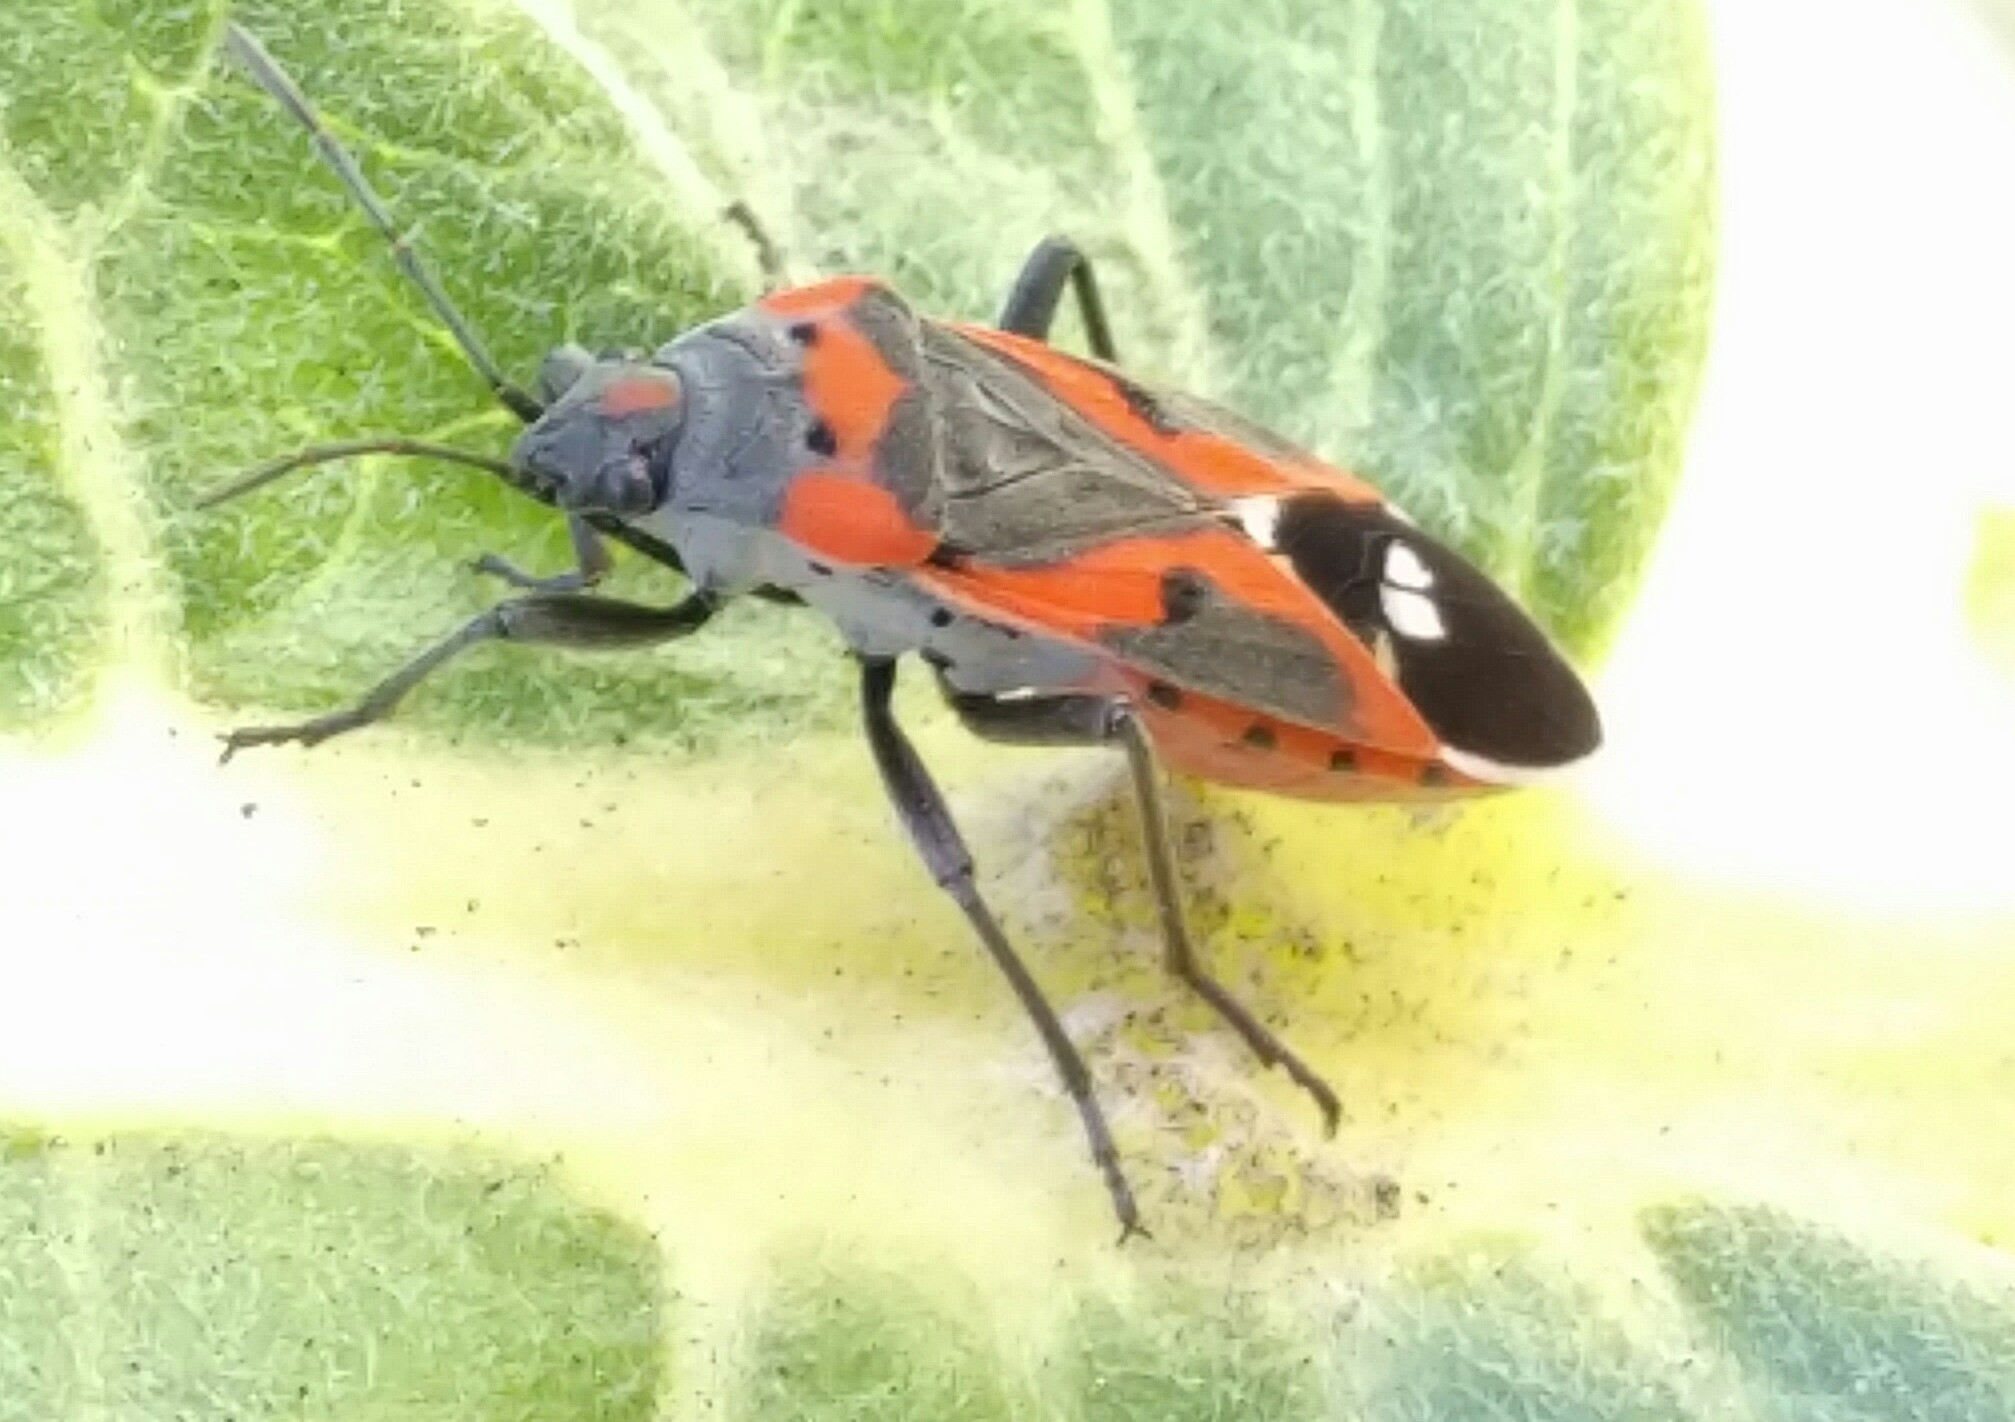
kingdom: Animalia
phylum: Arthropoda
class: Insecta
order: Hemiptera
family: Lygaeidae
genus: Lygaeus
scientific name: Lygaeus kalmii
